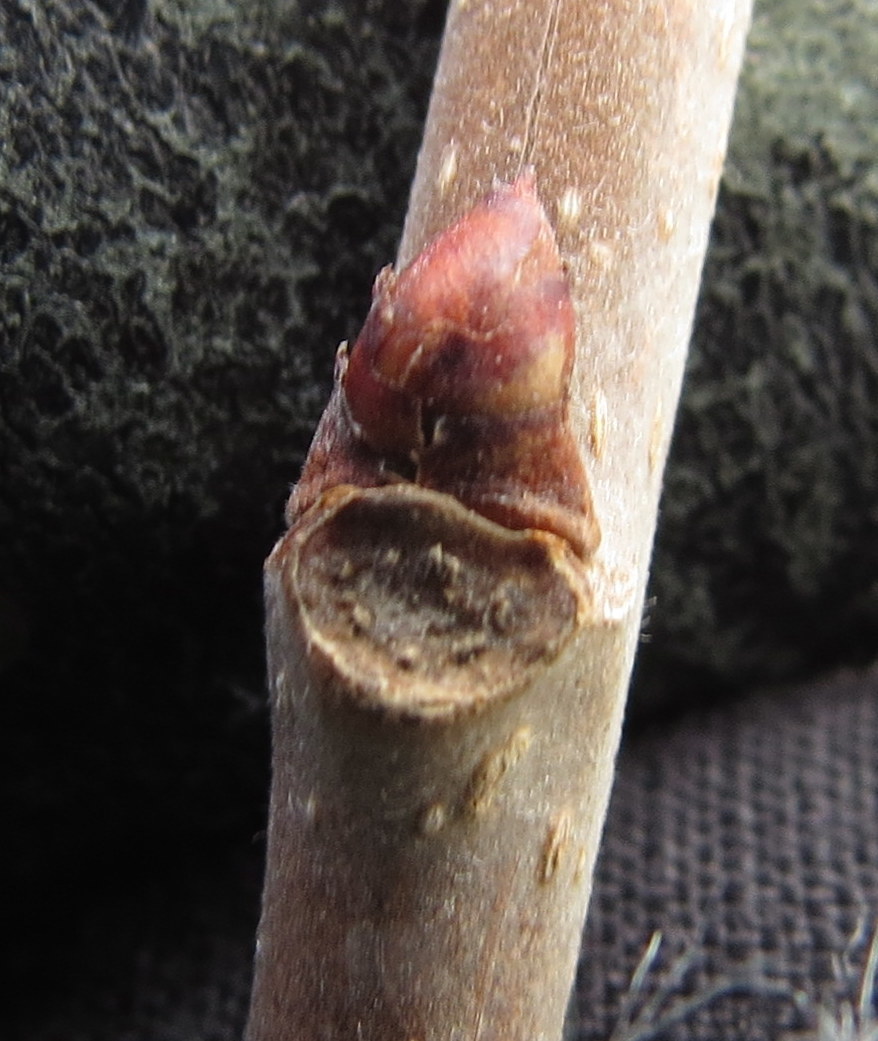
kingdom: Plantae
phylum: Tracheophyta
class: Magnoliopsida
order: Rosales
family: Moraceae
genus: Morus
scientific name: Morus alba
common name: White mulberry
